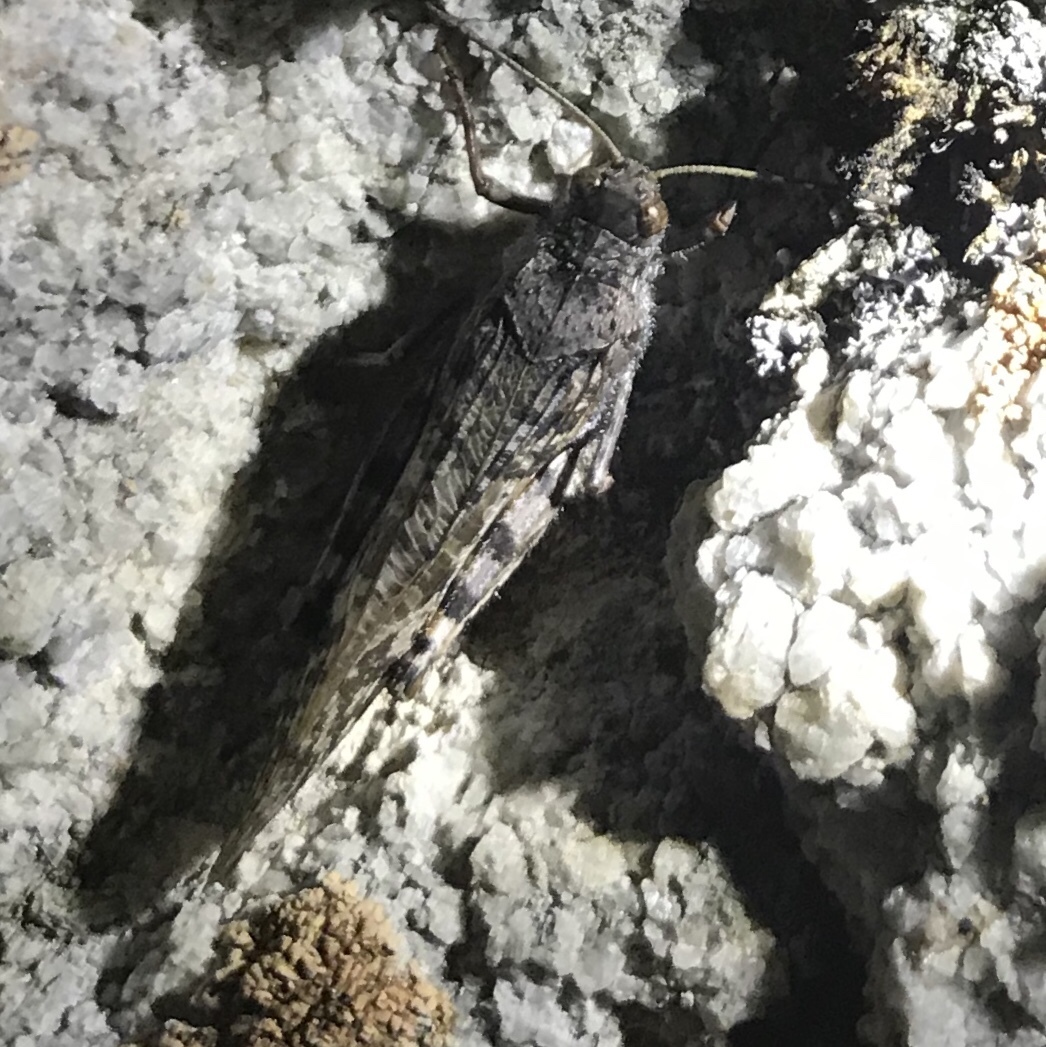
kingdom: Animalia
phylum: Arthropoda
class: Insecta
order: Orthoptera
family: Acrididae
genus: Angaracris
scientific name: Angaracris barabensis
